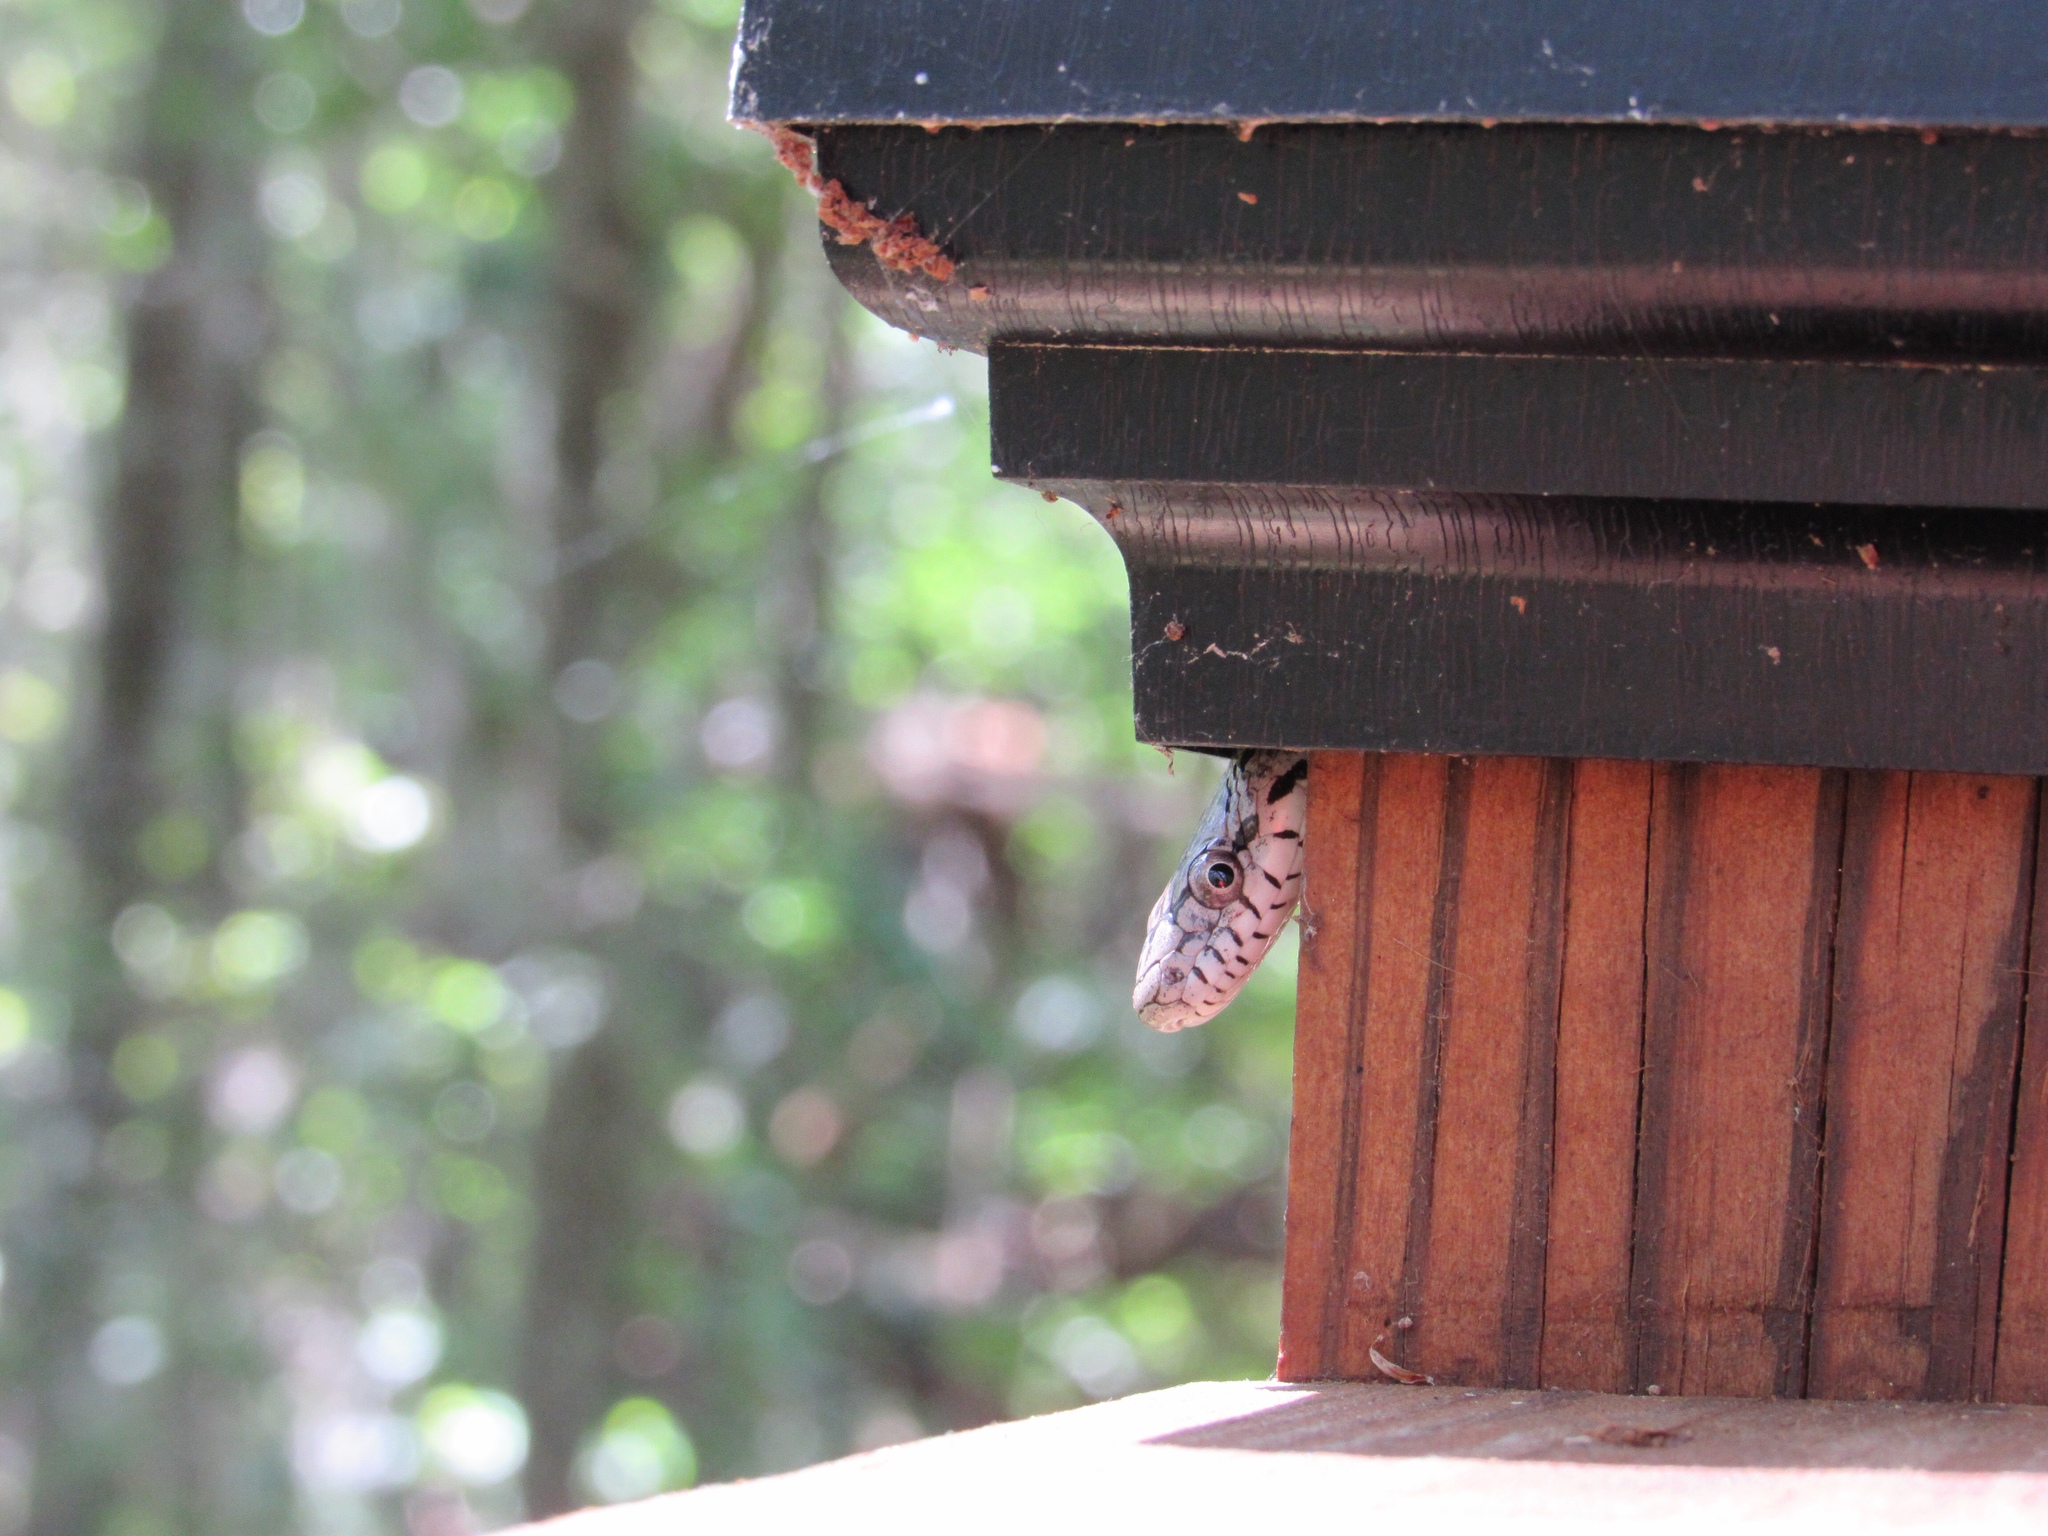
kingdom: Animalia
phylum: Chordata
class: Squamata
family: Colubridae
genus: Pantherophis
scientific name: Pantherophis spiloides
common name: Gray rat snake
